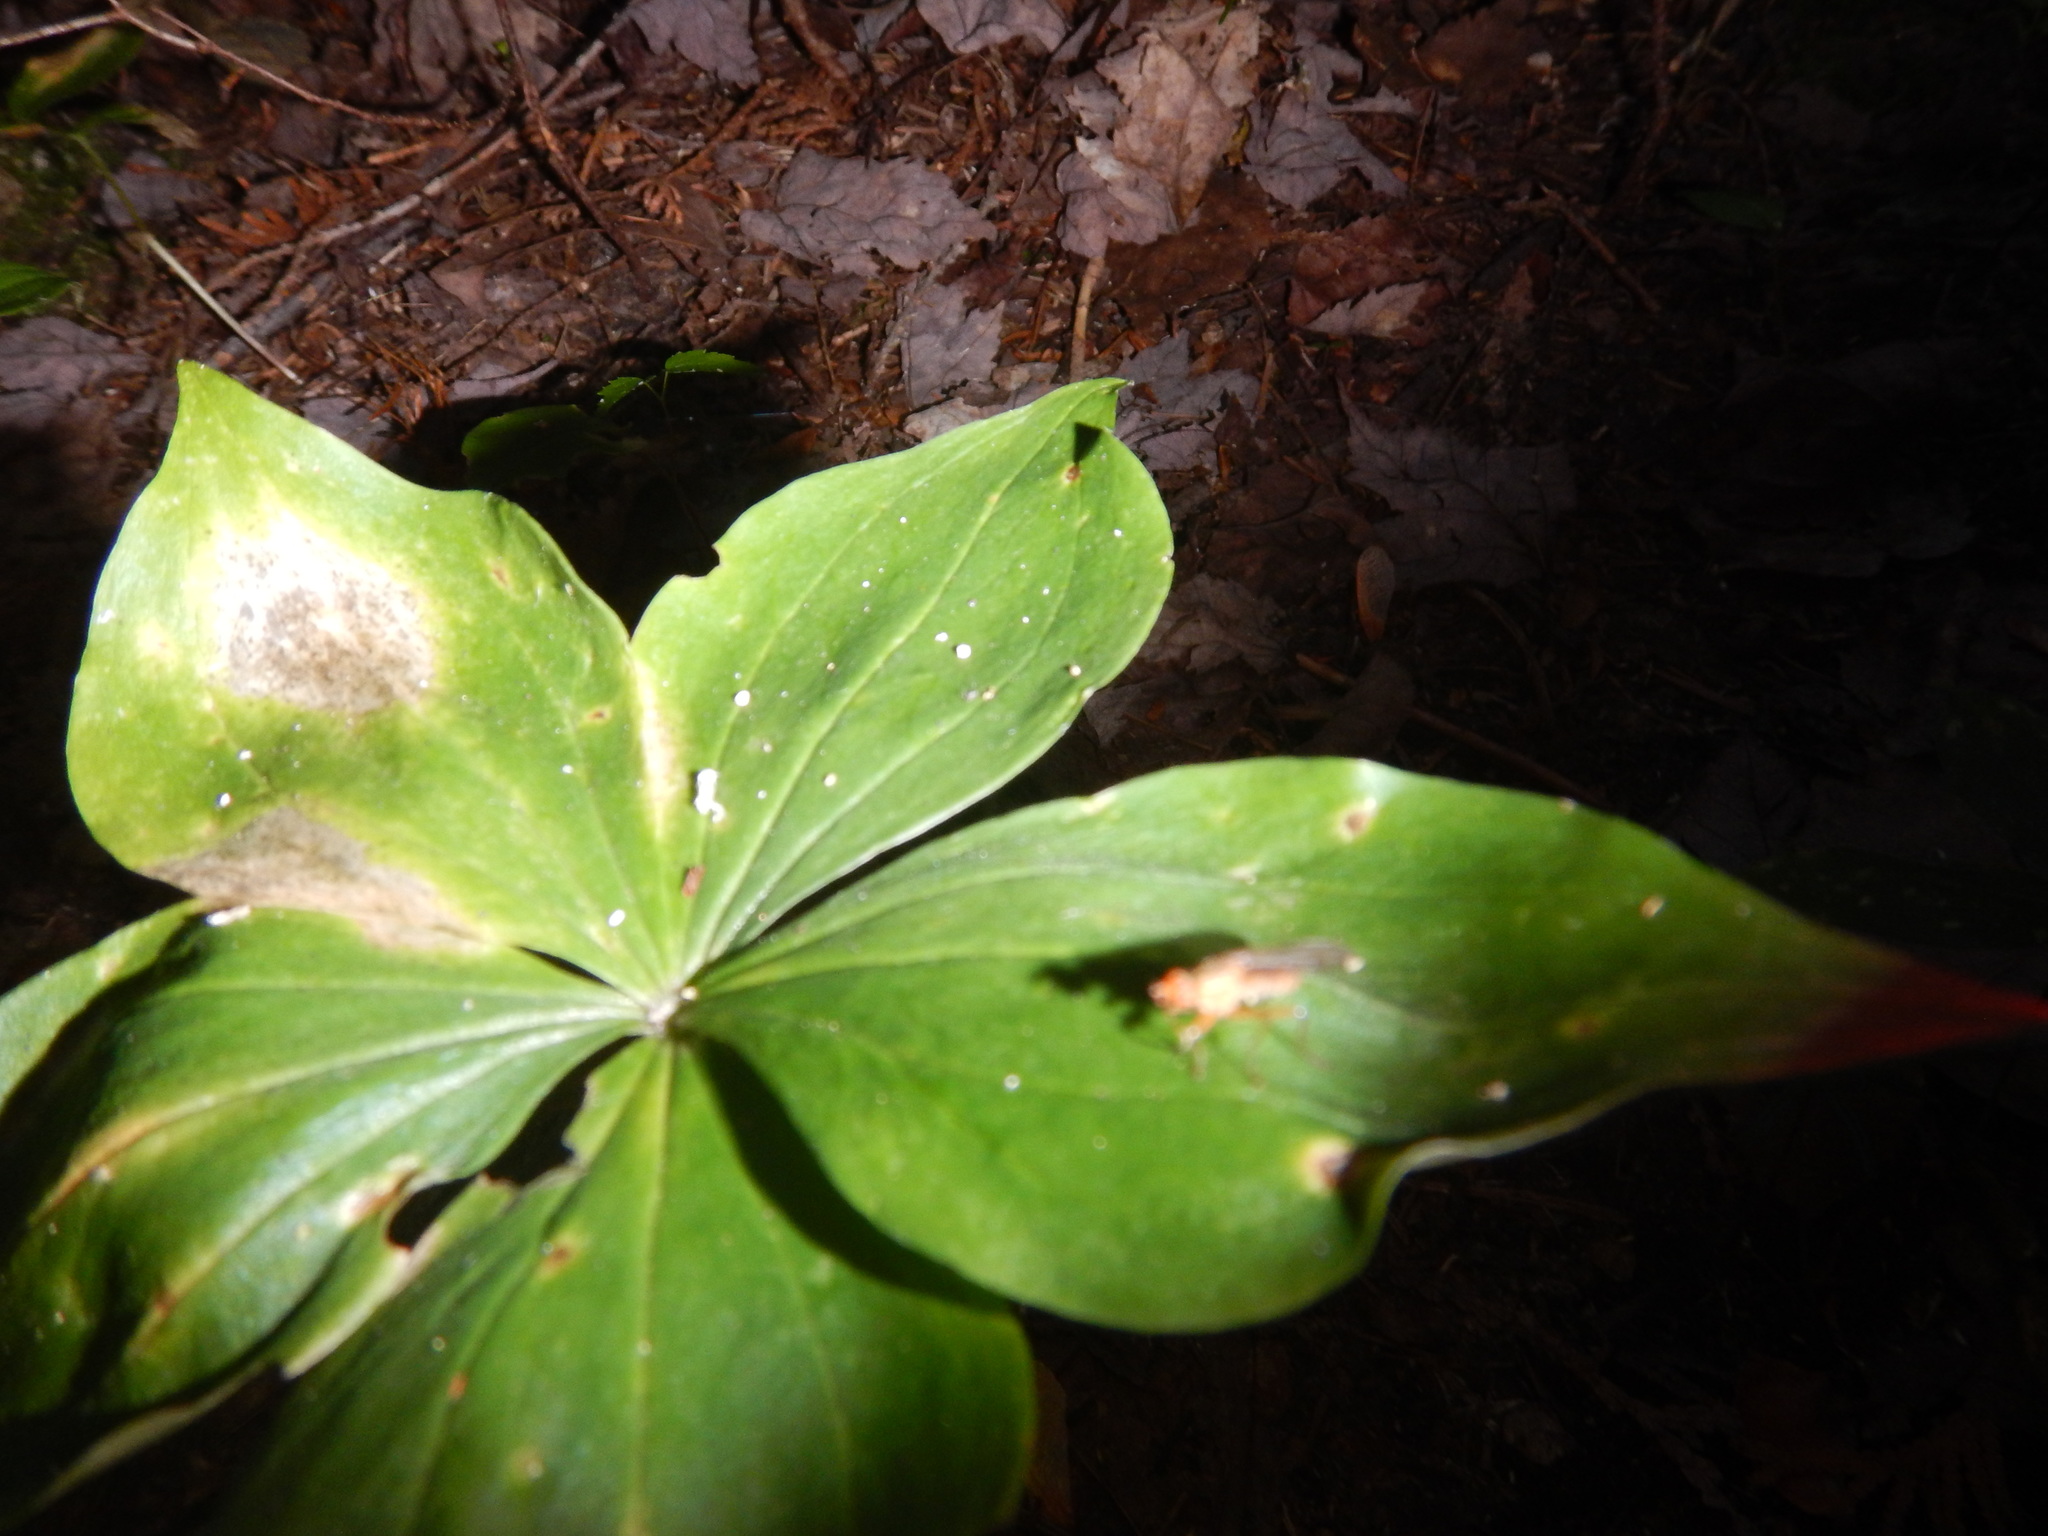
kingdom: Plantae
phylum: Tracheophyta
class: Liliopsida
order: Liliales
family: Liliaceae
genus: Medeola
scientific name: Medeola virginiana
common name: Indian cucumber-root
